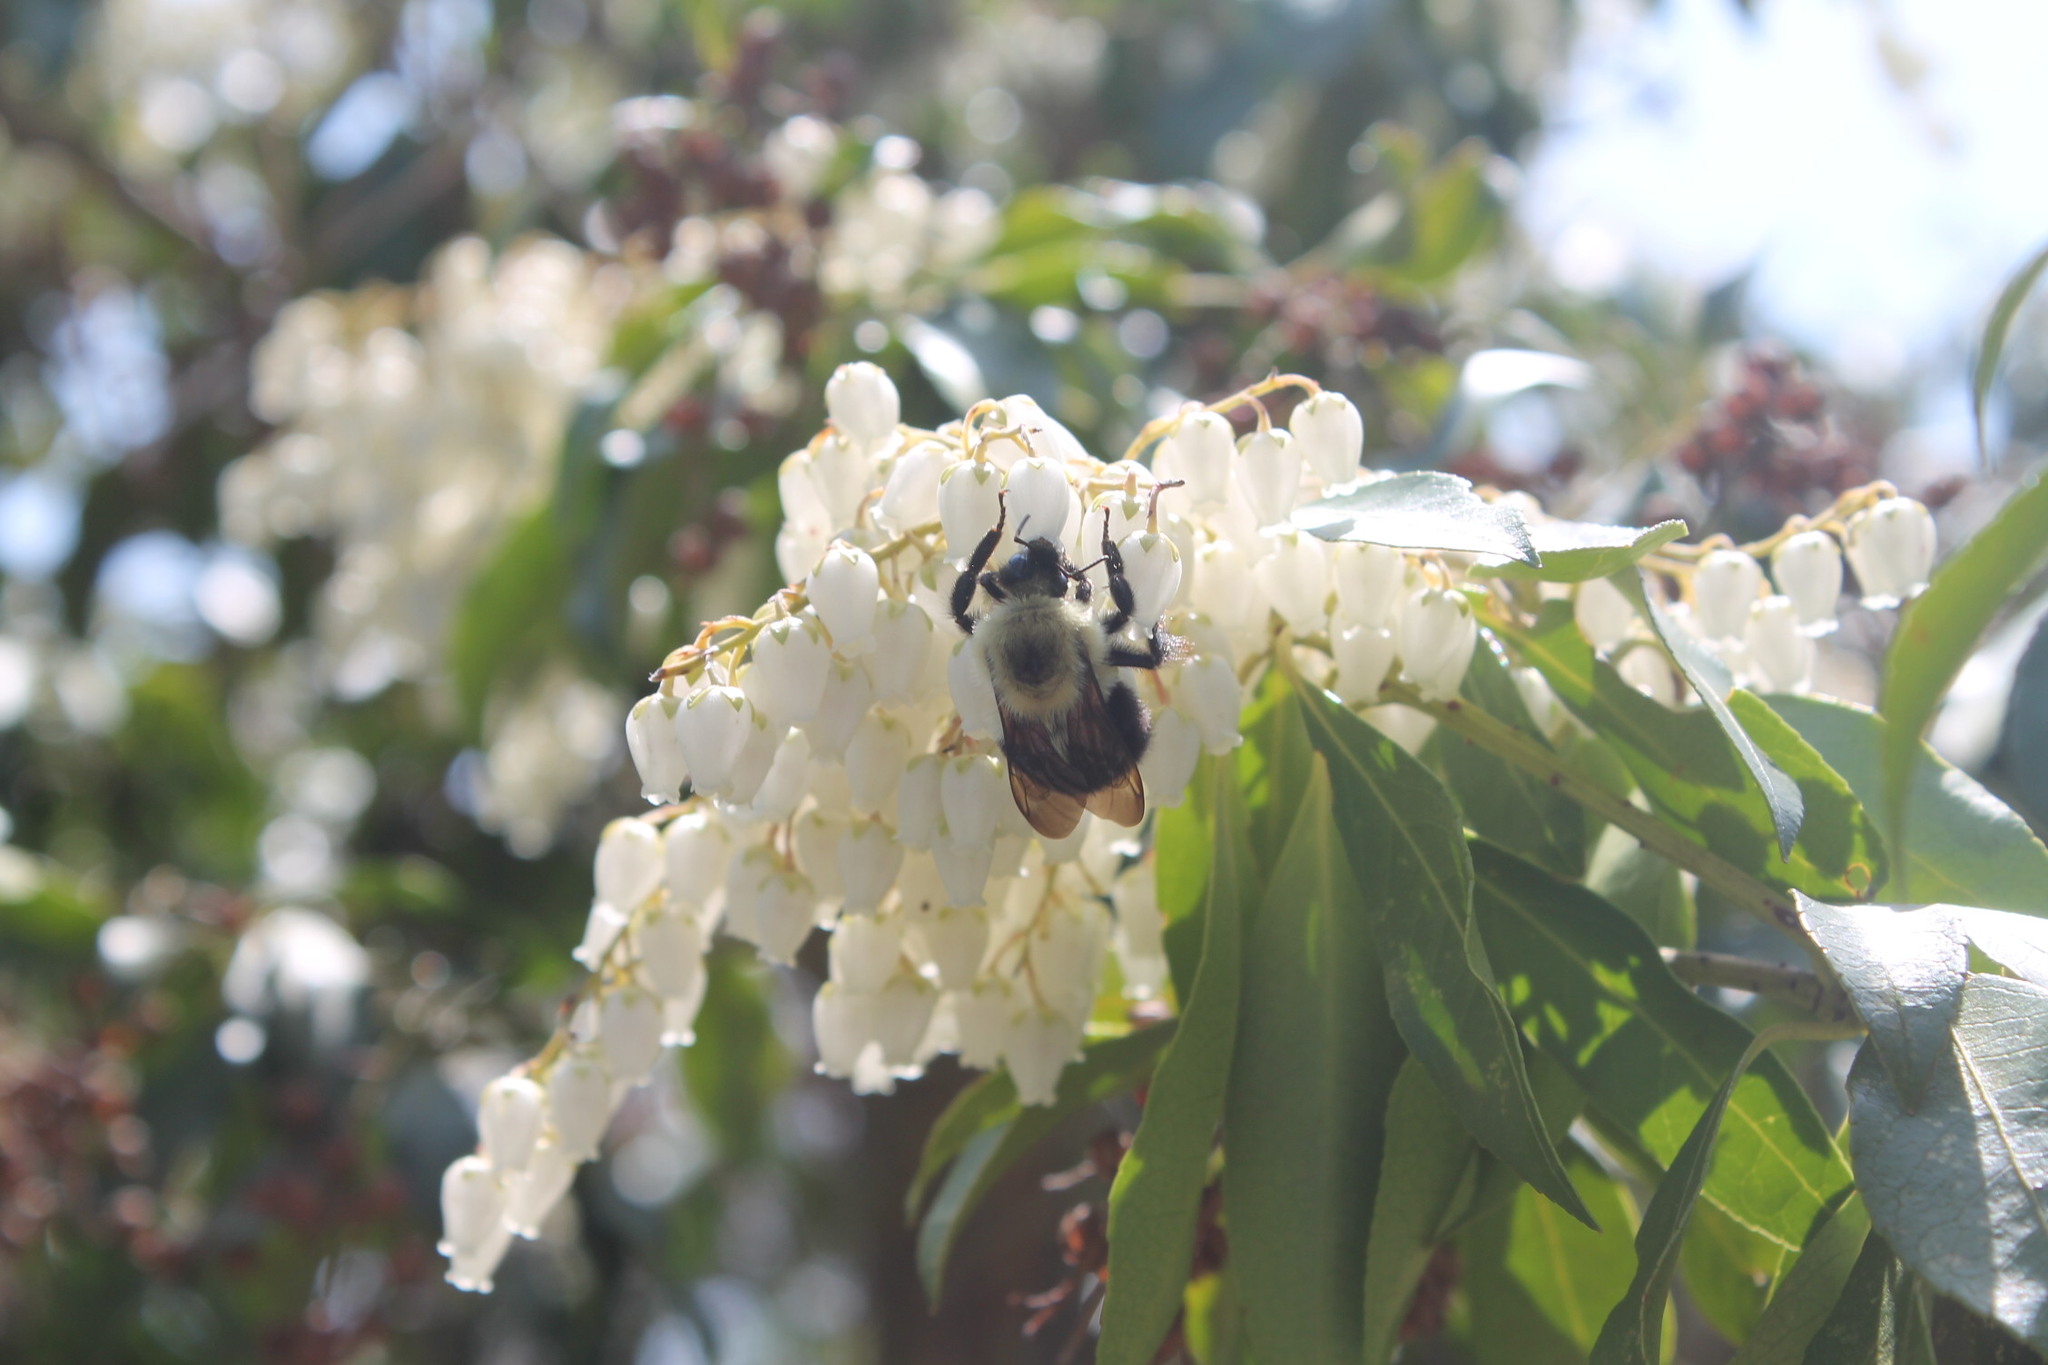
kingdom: Animalia
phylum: Arthropoda
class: Insecta
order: Hymenoptera
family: Apidae
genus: Bombus
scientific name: Bombus bimaculatus
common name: Two-spotted bumble bee
